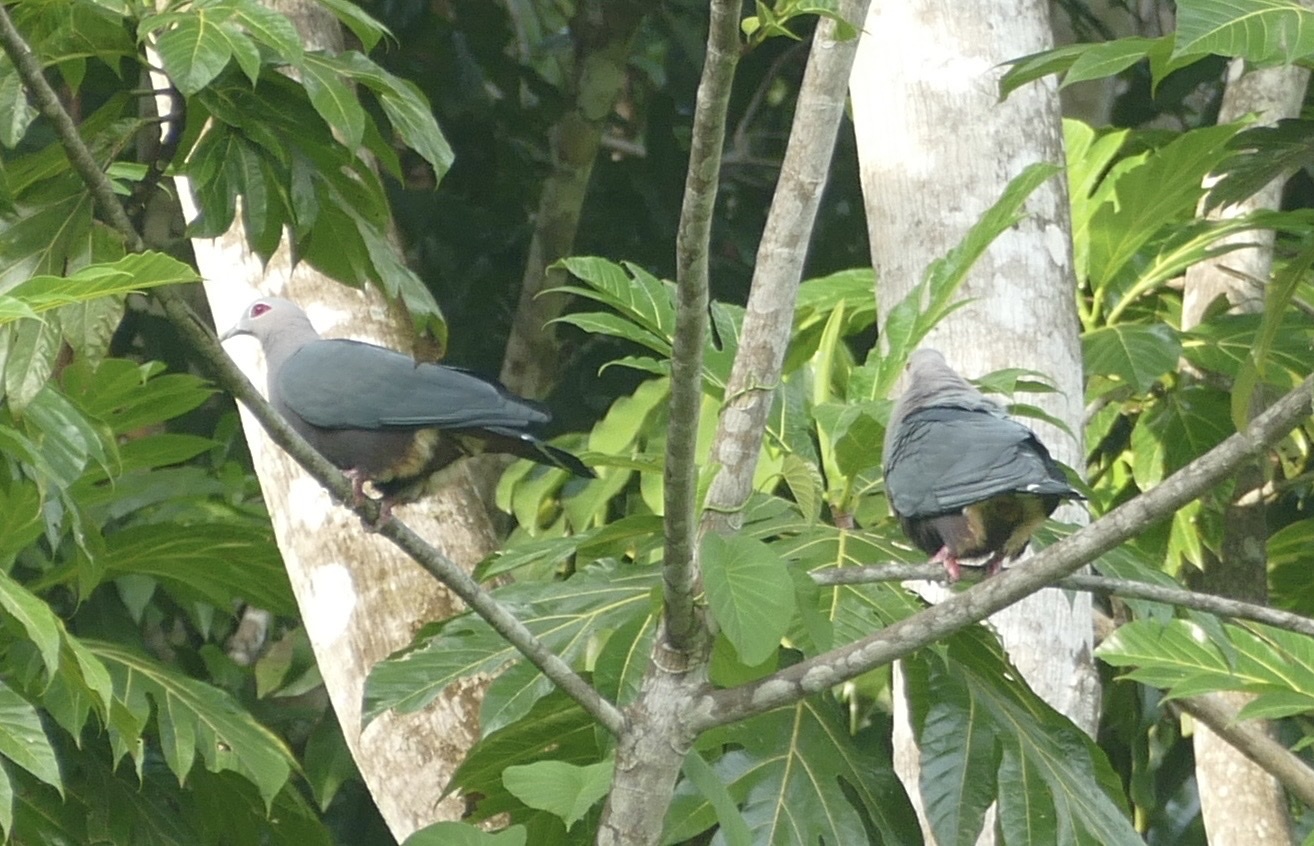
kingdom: Animalia
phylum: Chordata
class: Aves
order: Columbiformes
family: Columbidae
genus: Ducula
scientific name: Ducula pinon
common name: Pinon's imperial pigeon
